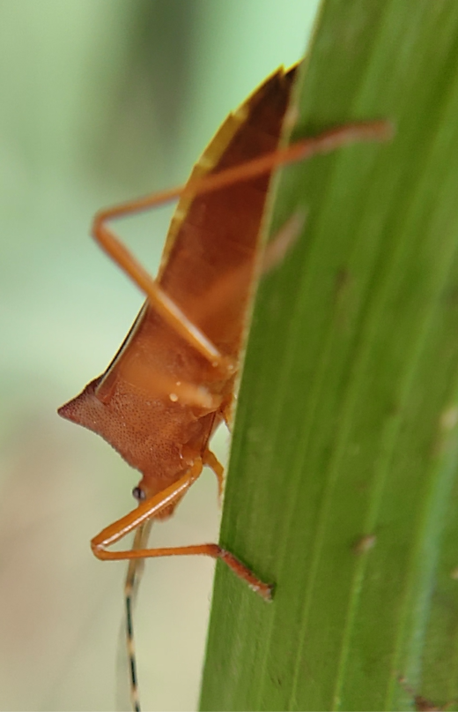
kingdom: Animalia
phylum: Arthropoda
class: Insecta
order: Hemiptera
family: Coreidae
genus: Anasa
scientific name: Anasa varicornis
